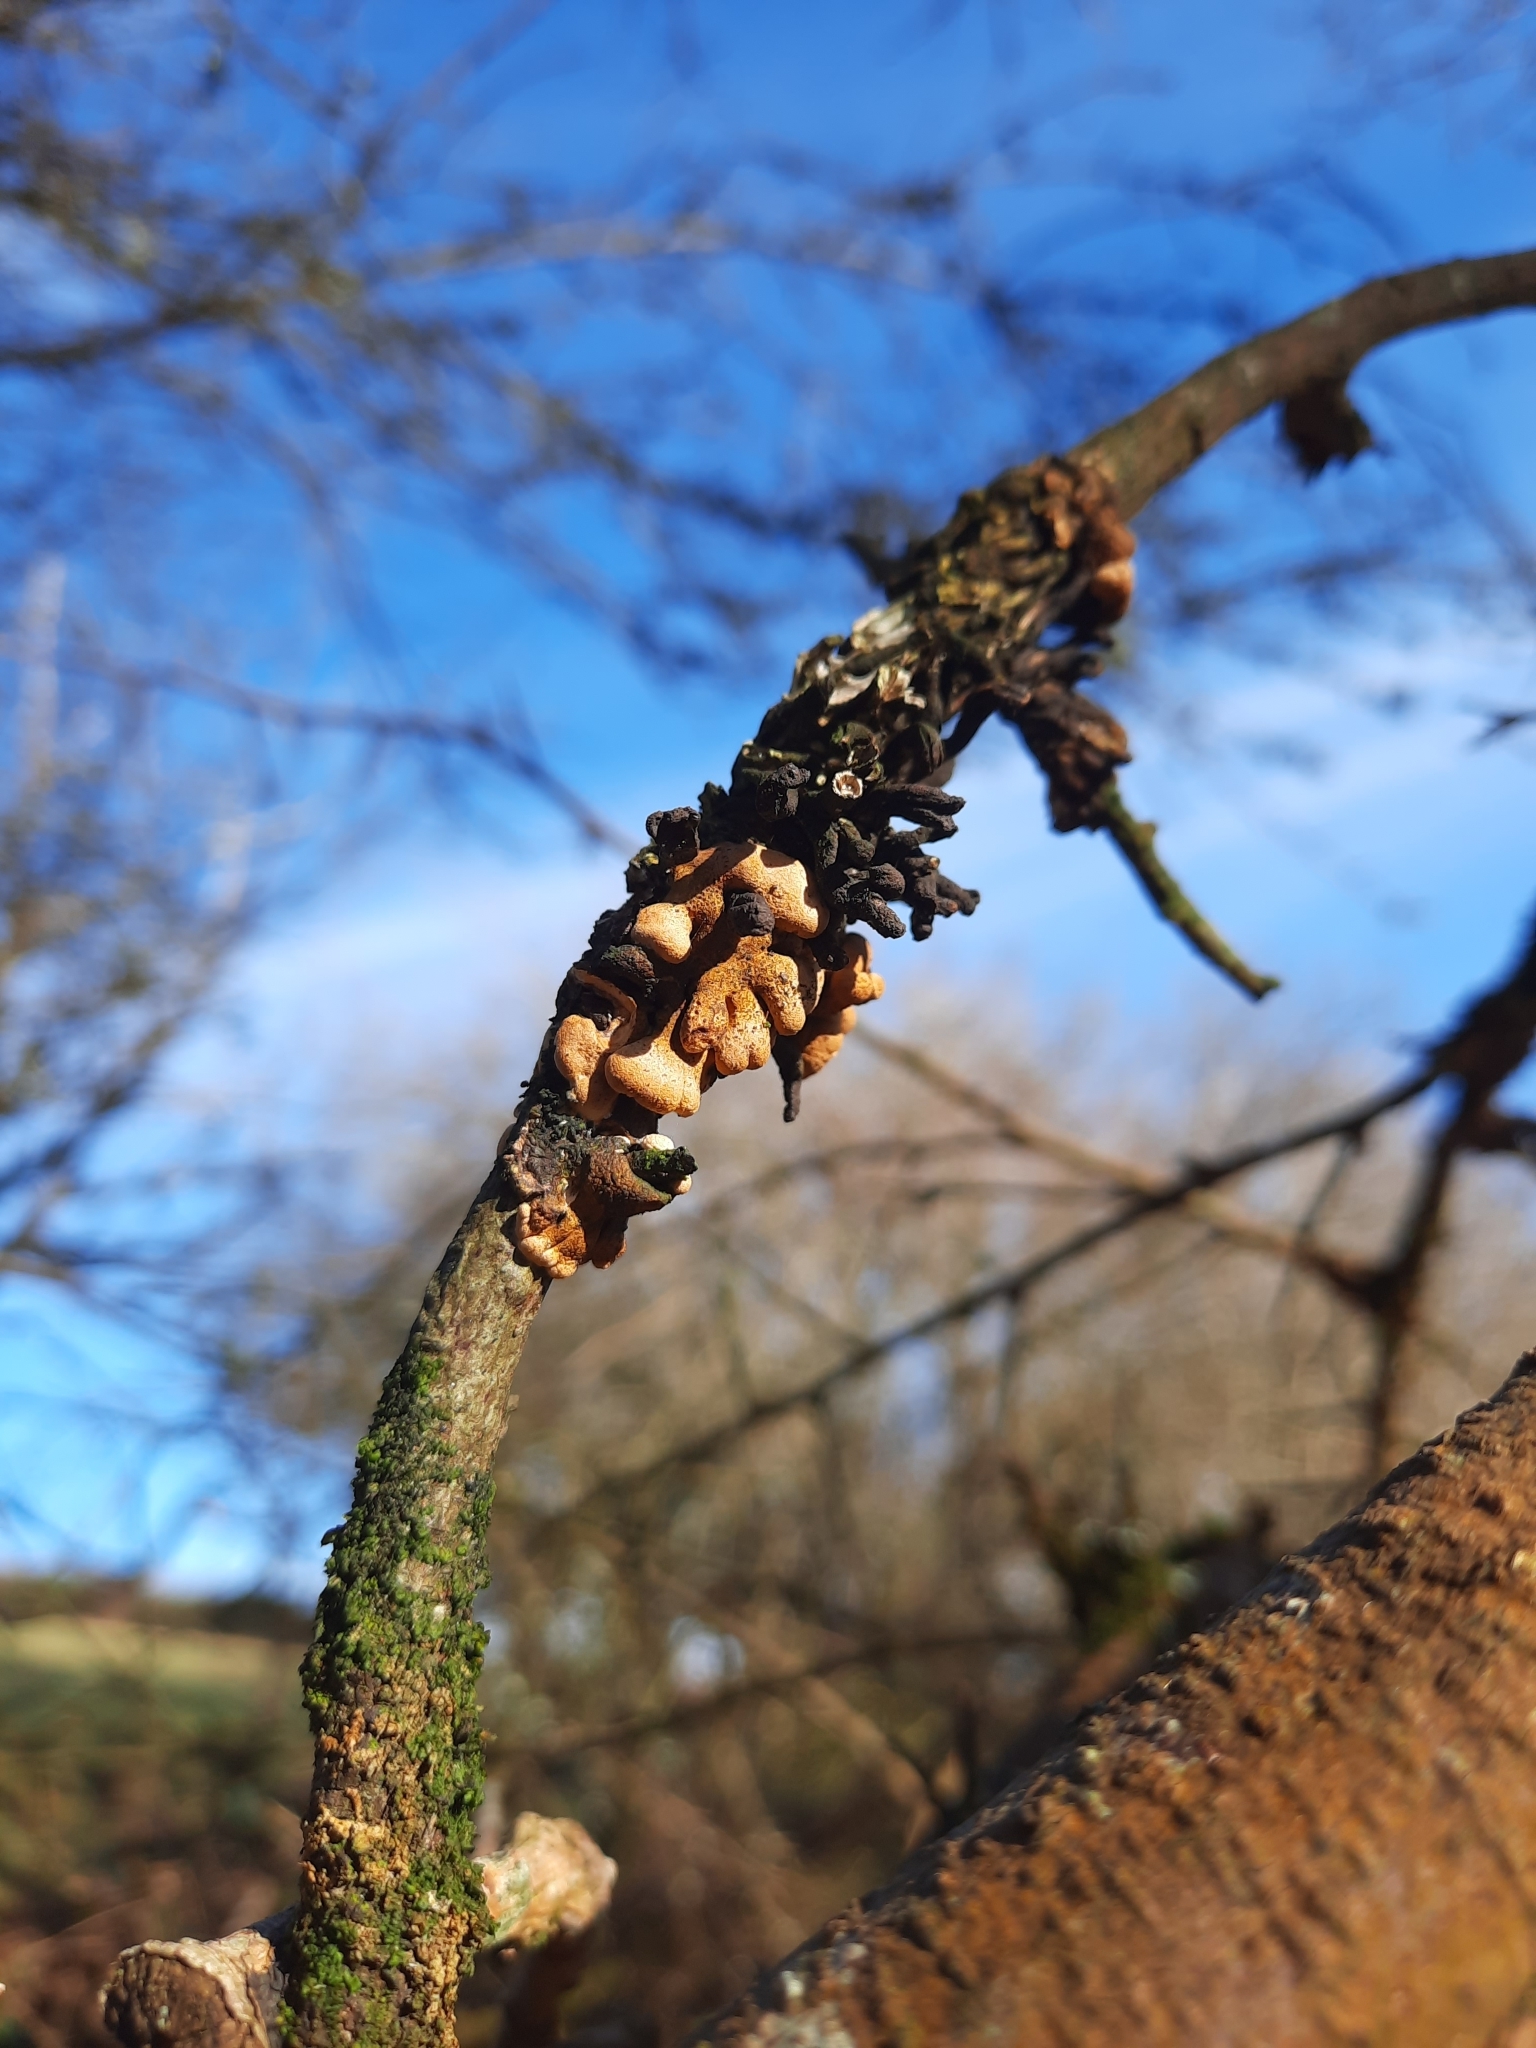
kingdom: Fungi
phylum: Ascomycota
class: Sordariomycetes
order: Hypocreales
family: Hypocreaceae
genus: Hypocreopsis
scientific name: Hypocreopsis rhododendri
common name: Hazel gloves
